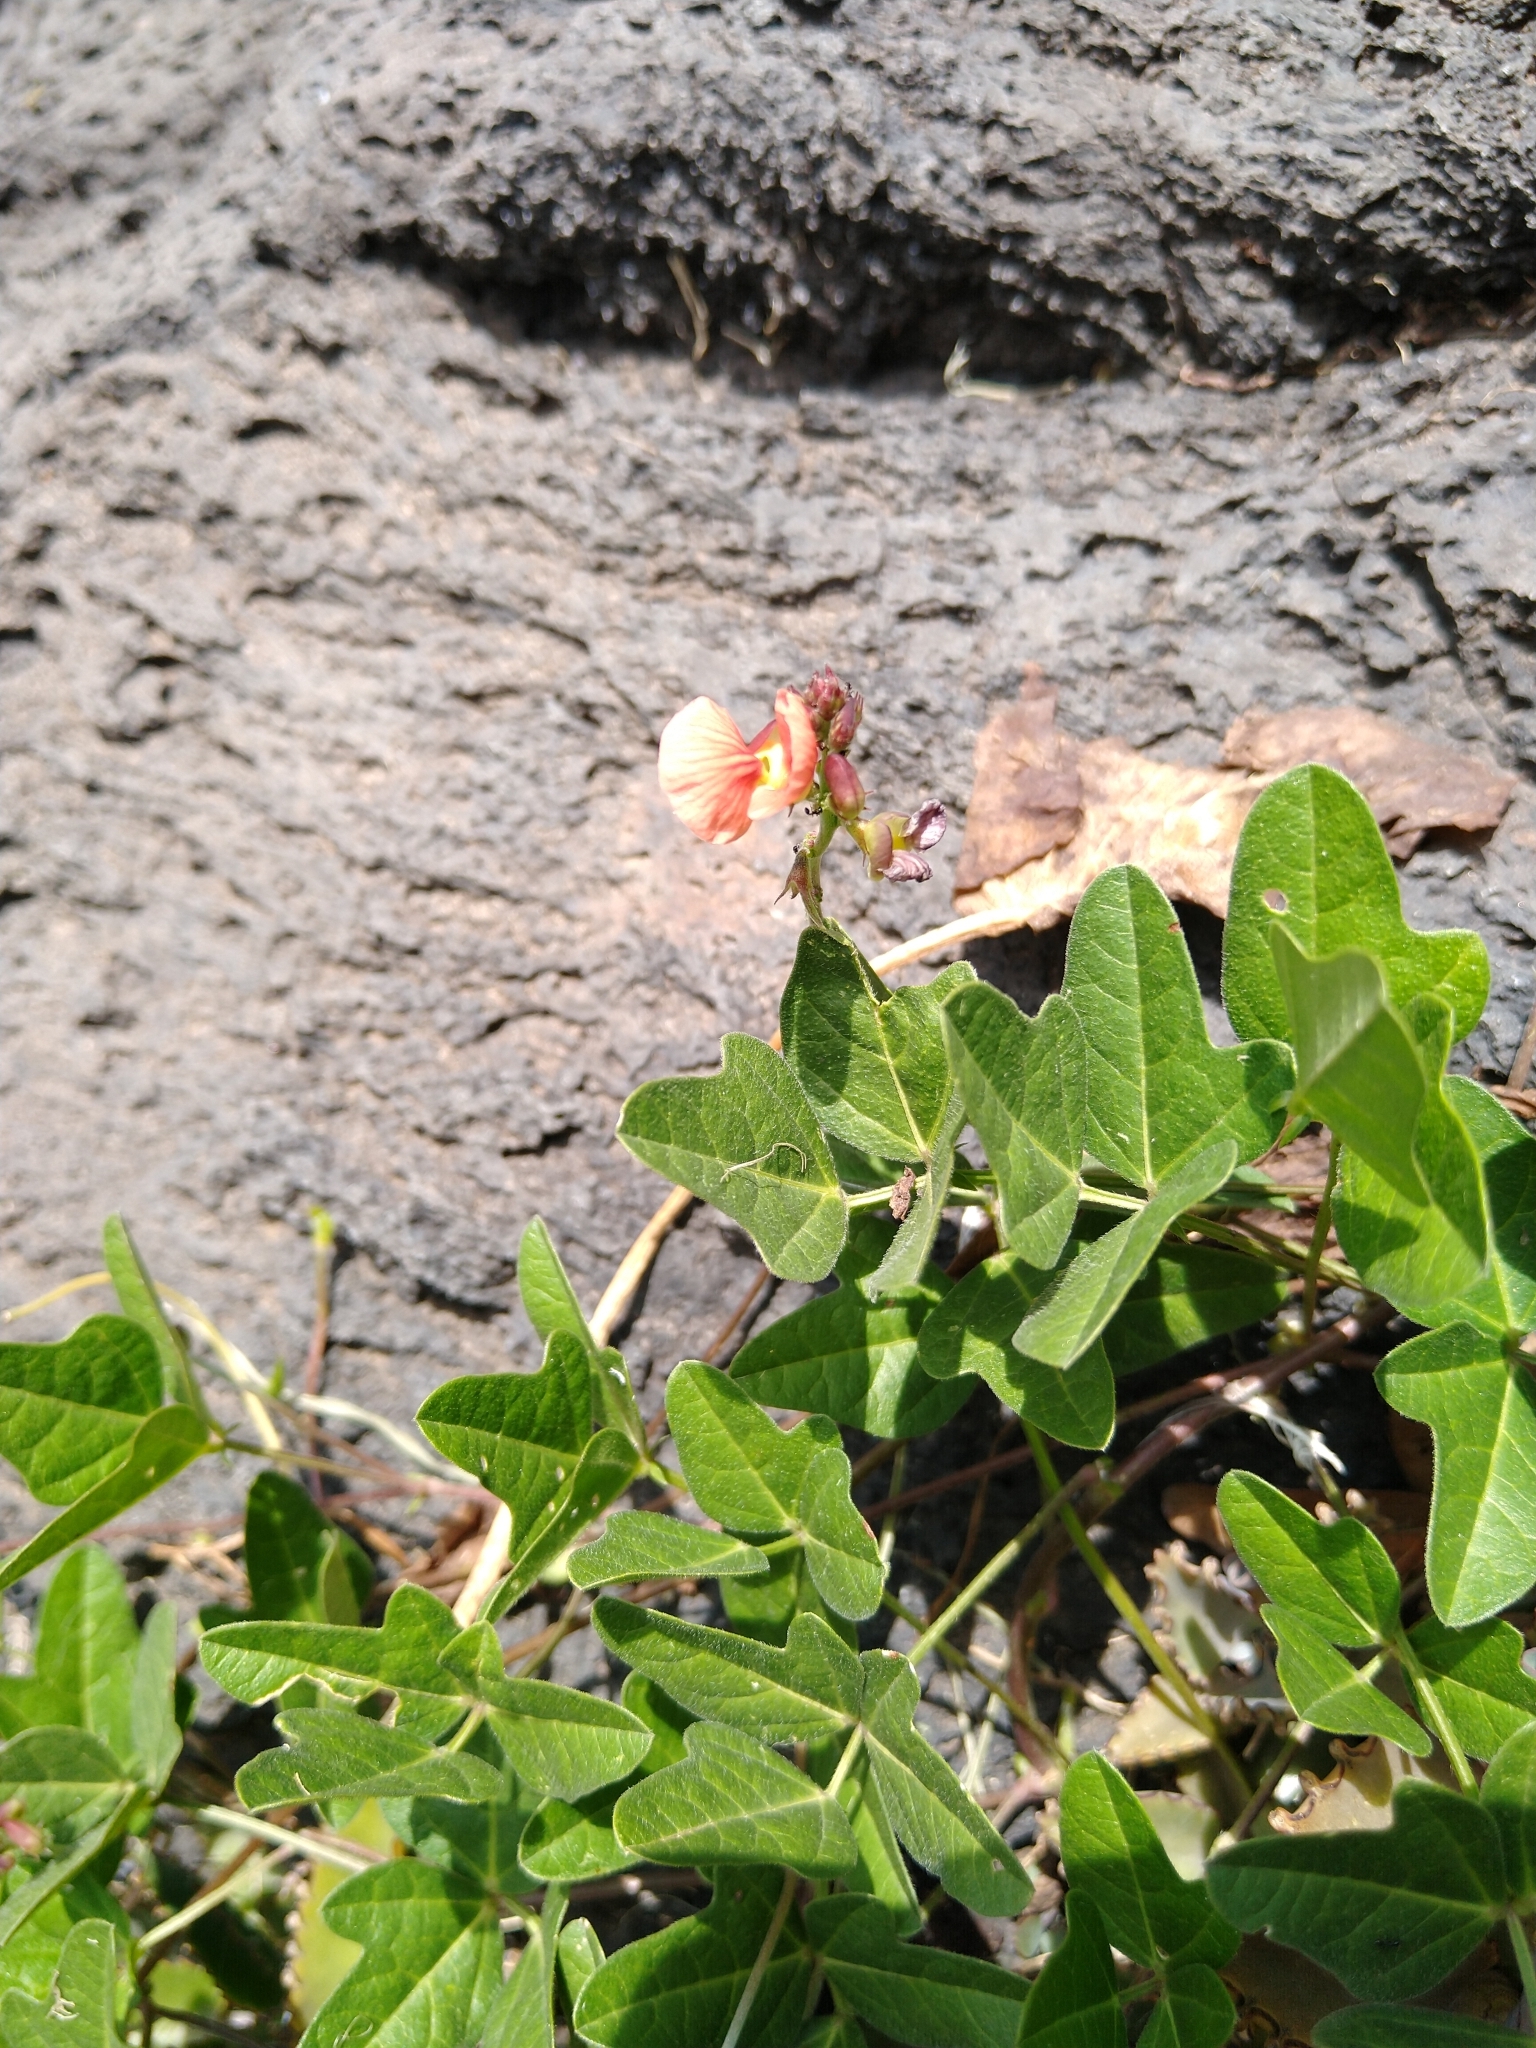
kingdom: Plantae
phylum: Tracheophyta
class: Magnoliopsida
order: Fabales
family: Fabaceae
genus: Macroptilium
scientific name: Macroptilium gibbosifolium
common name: Variableleaf bushbean
